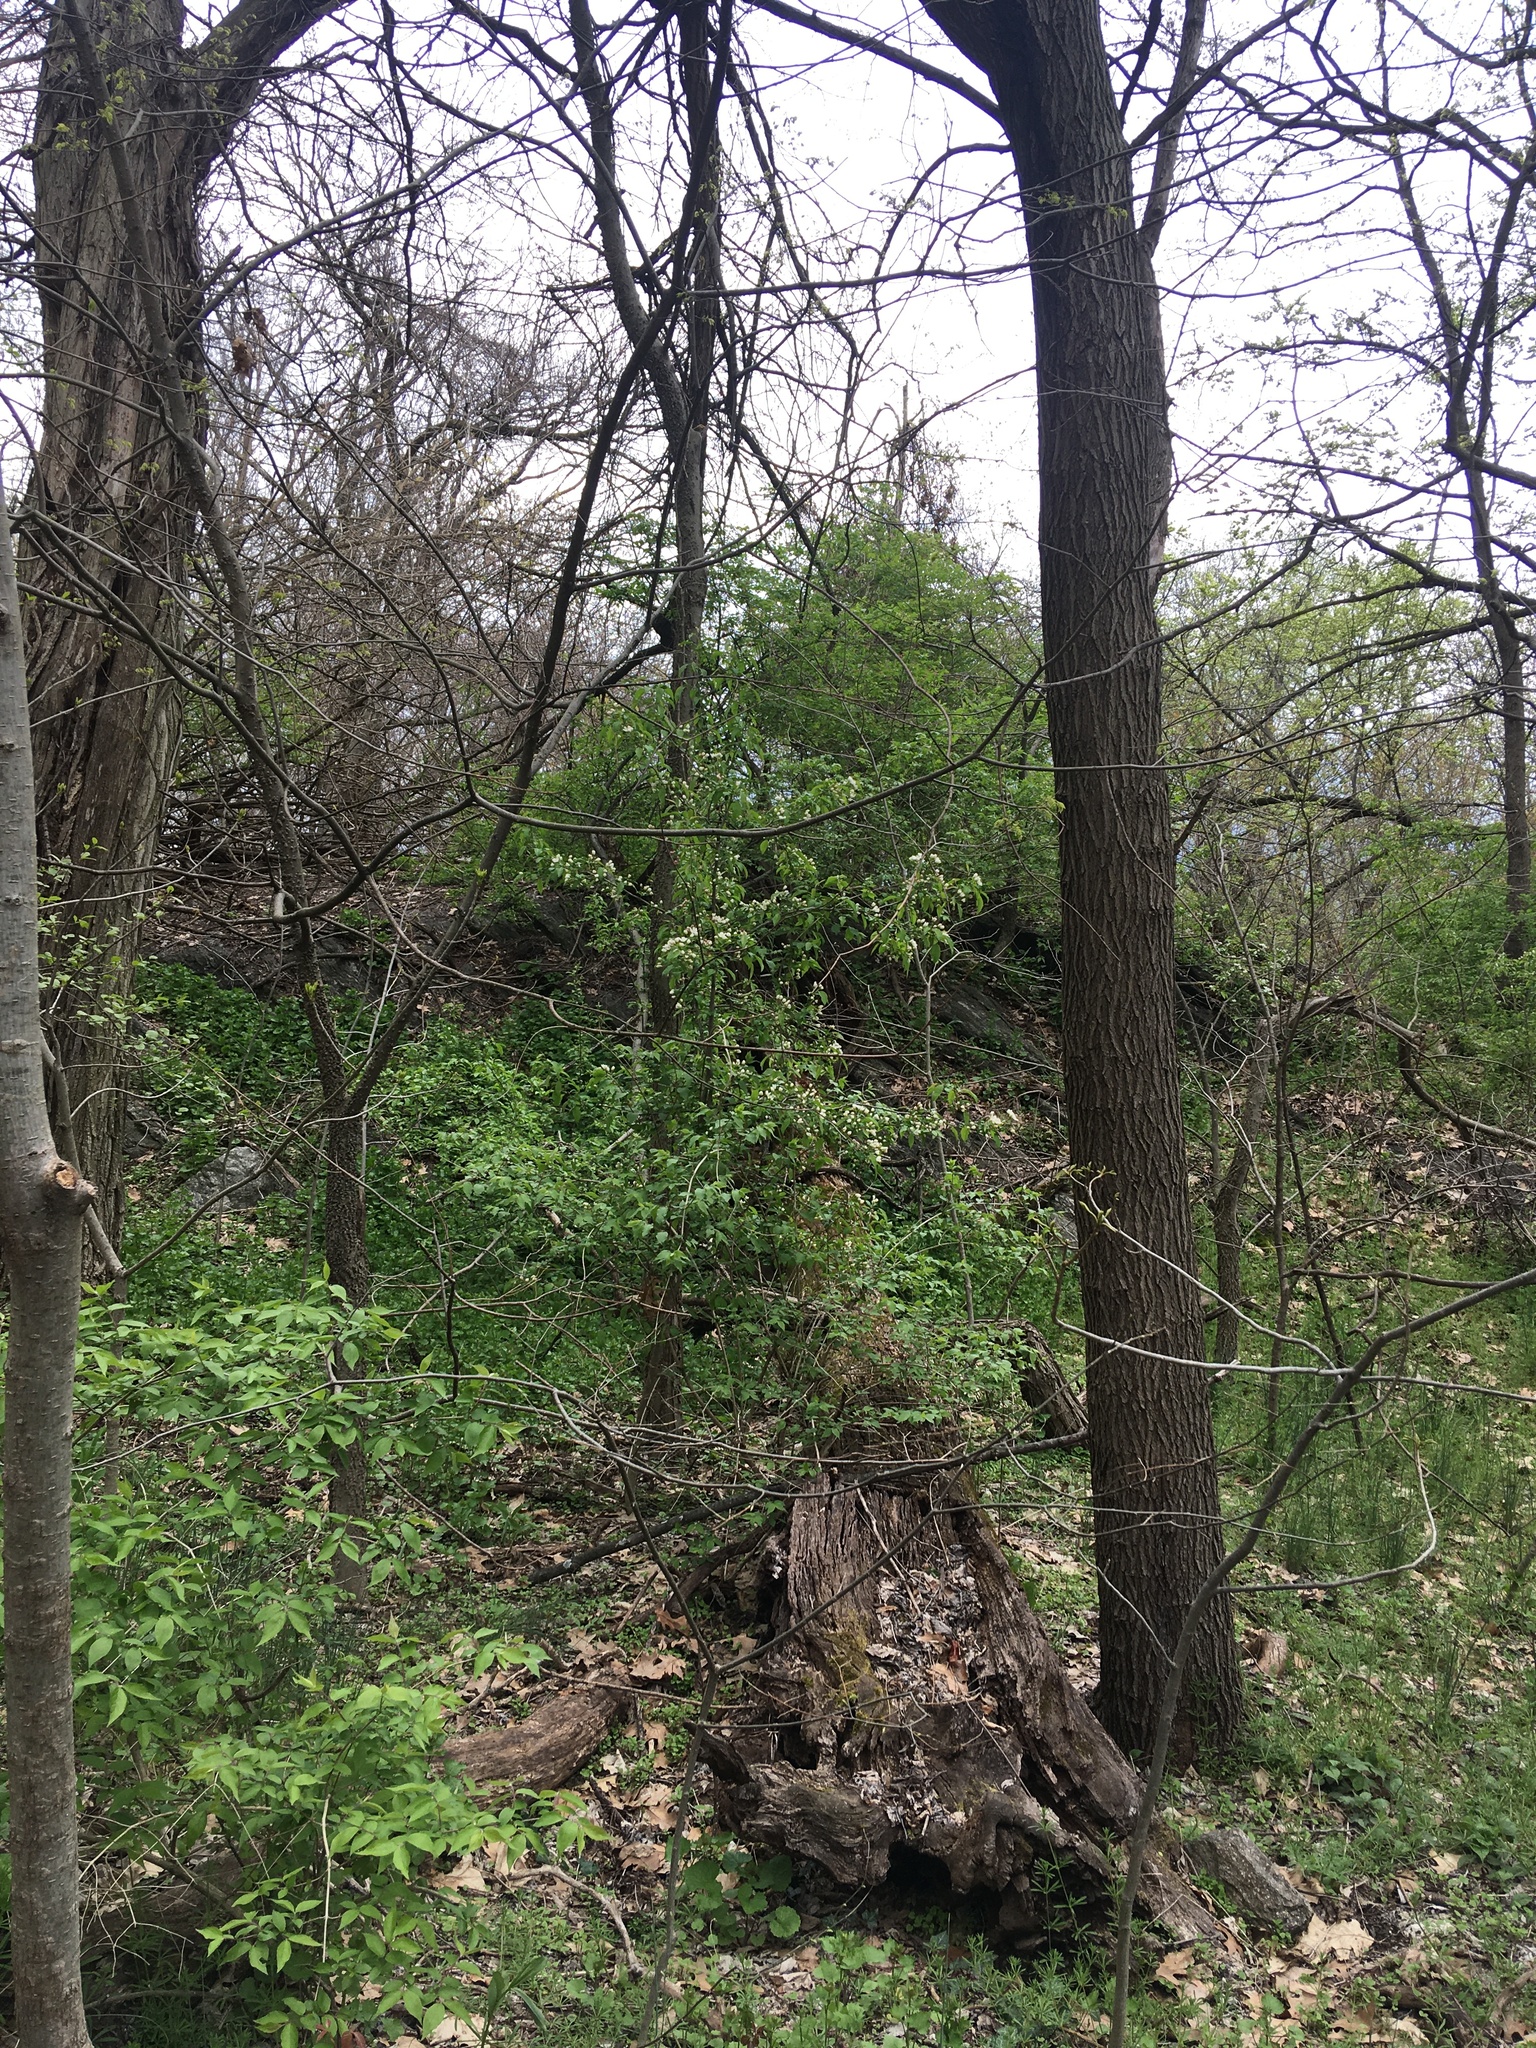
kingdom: Plantae
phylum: Tracheophyta
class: Magnoliopsida
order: Rosales
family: Rosaceae
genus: Malus
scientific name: Malus hupehensis
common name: Chinese crab apple
